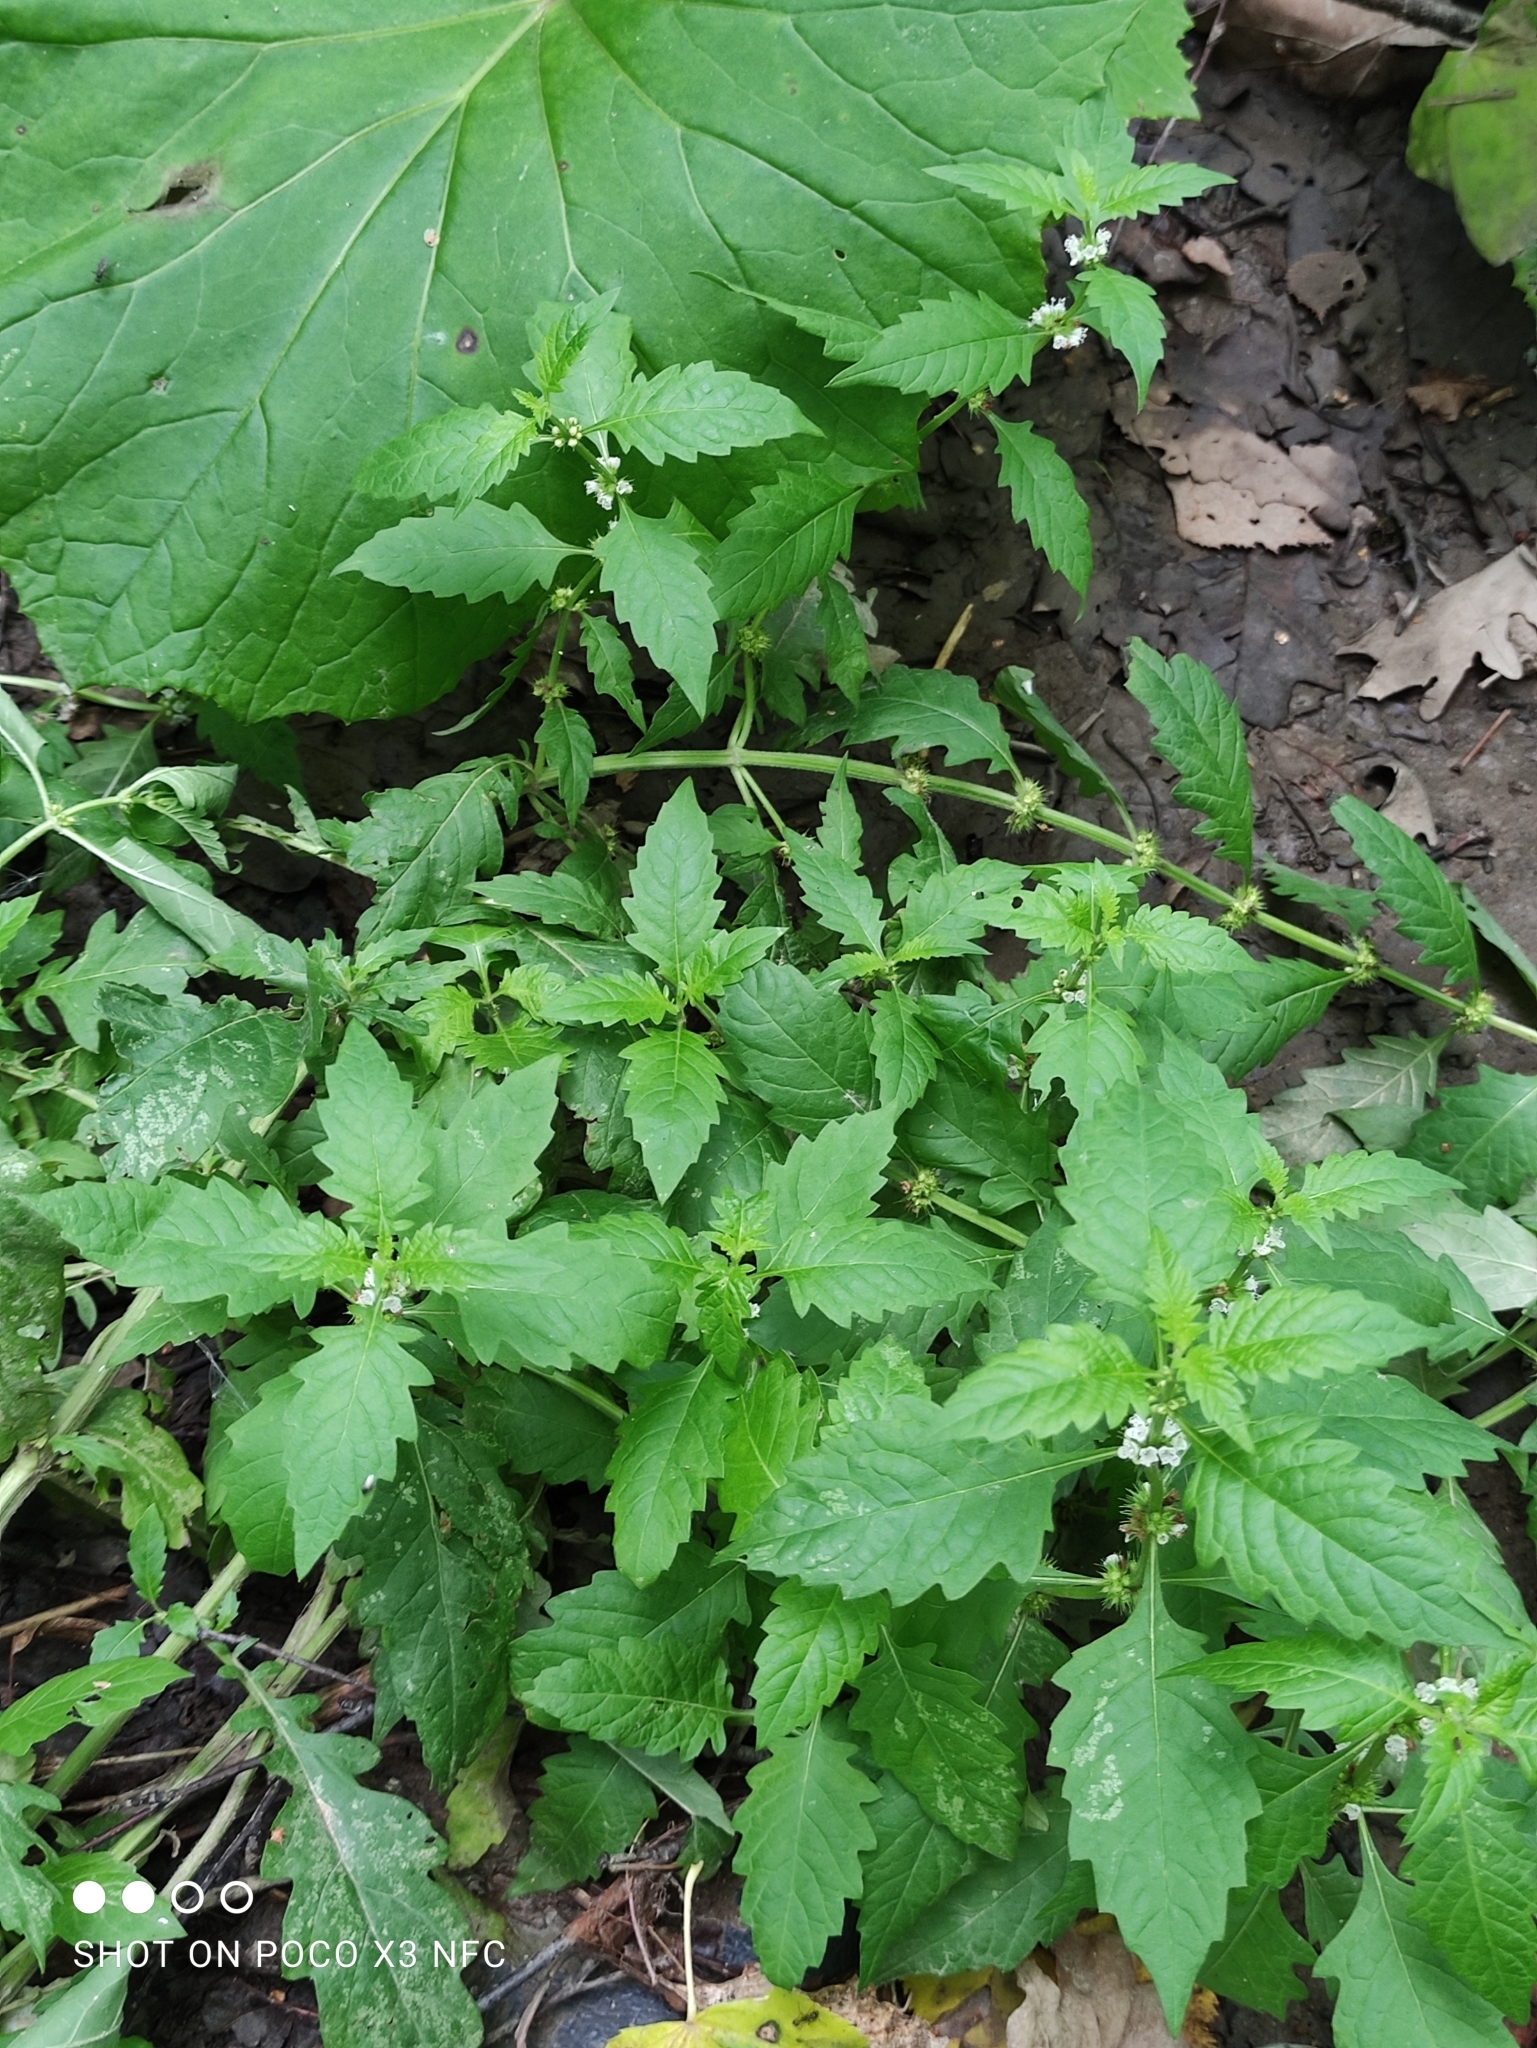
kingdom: Plantae
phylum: Tracheophyta
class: Magnoliopsida
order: Lamiales
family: Lamiaceae
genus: Lycopus
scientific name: Lycopus europaeus
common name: European bugleweed
